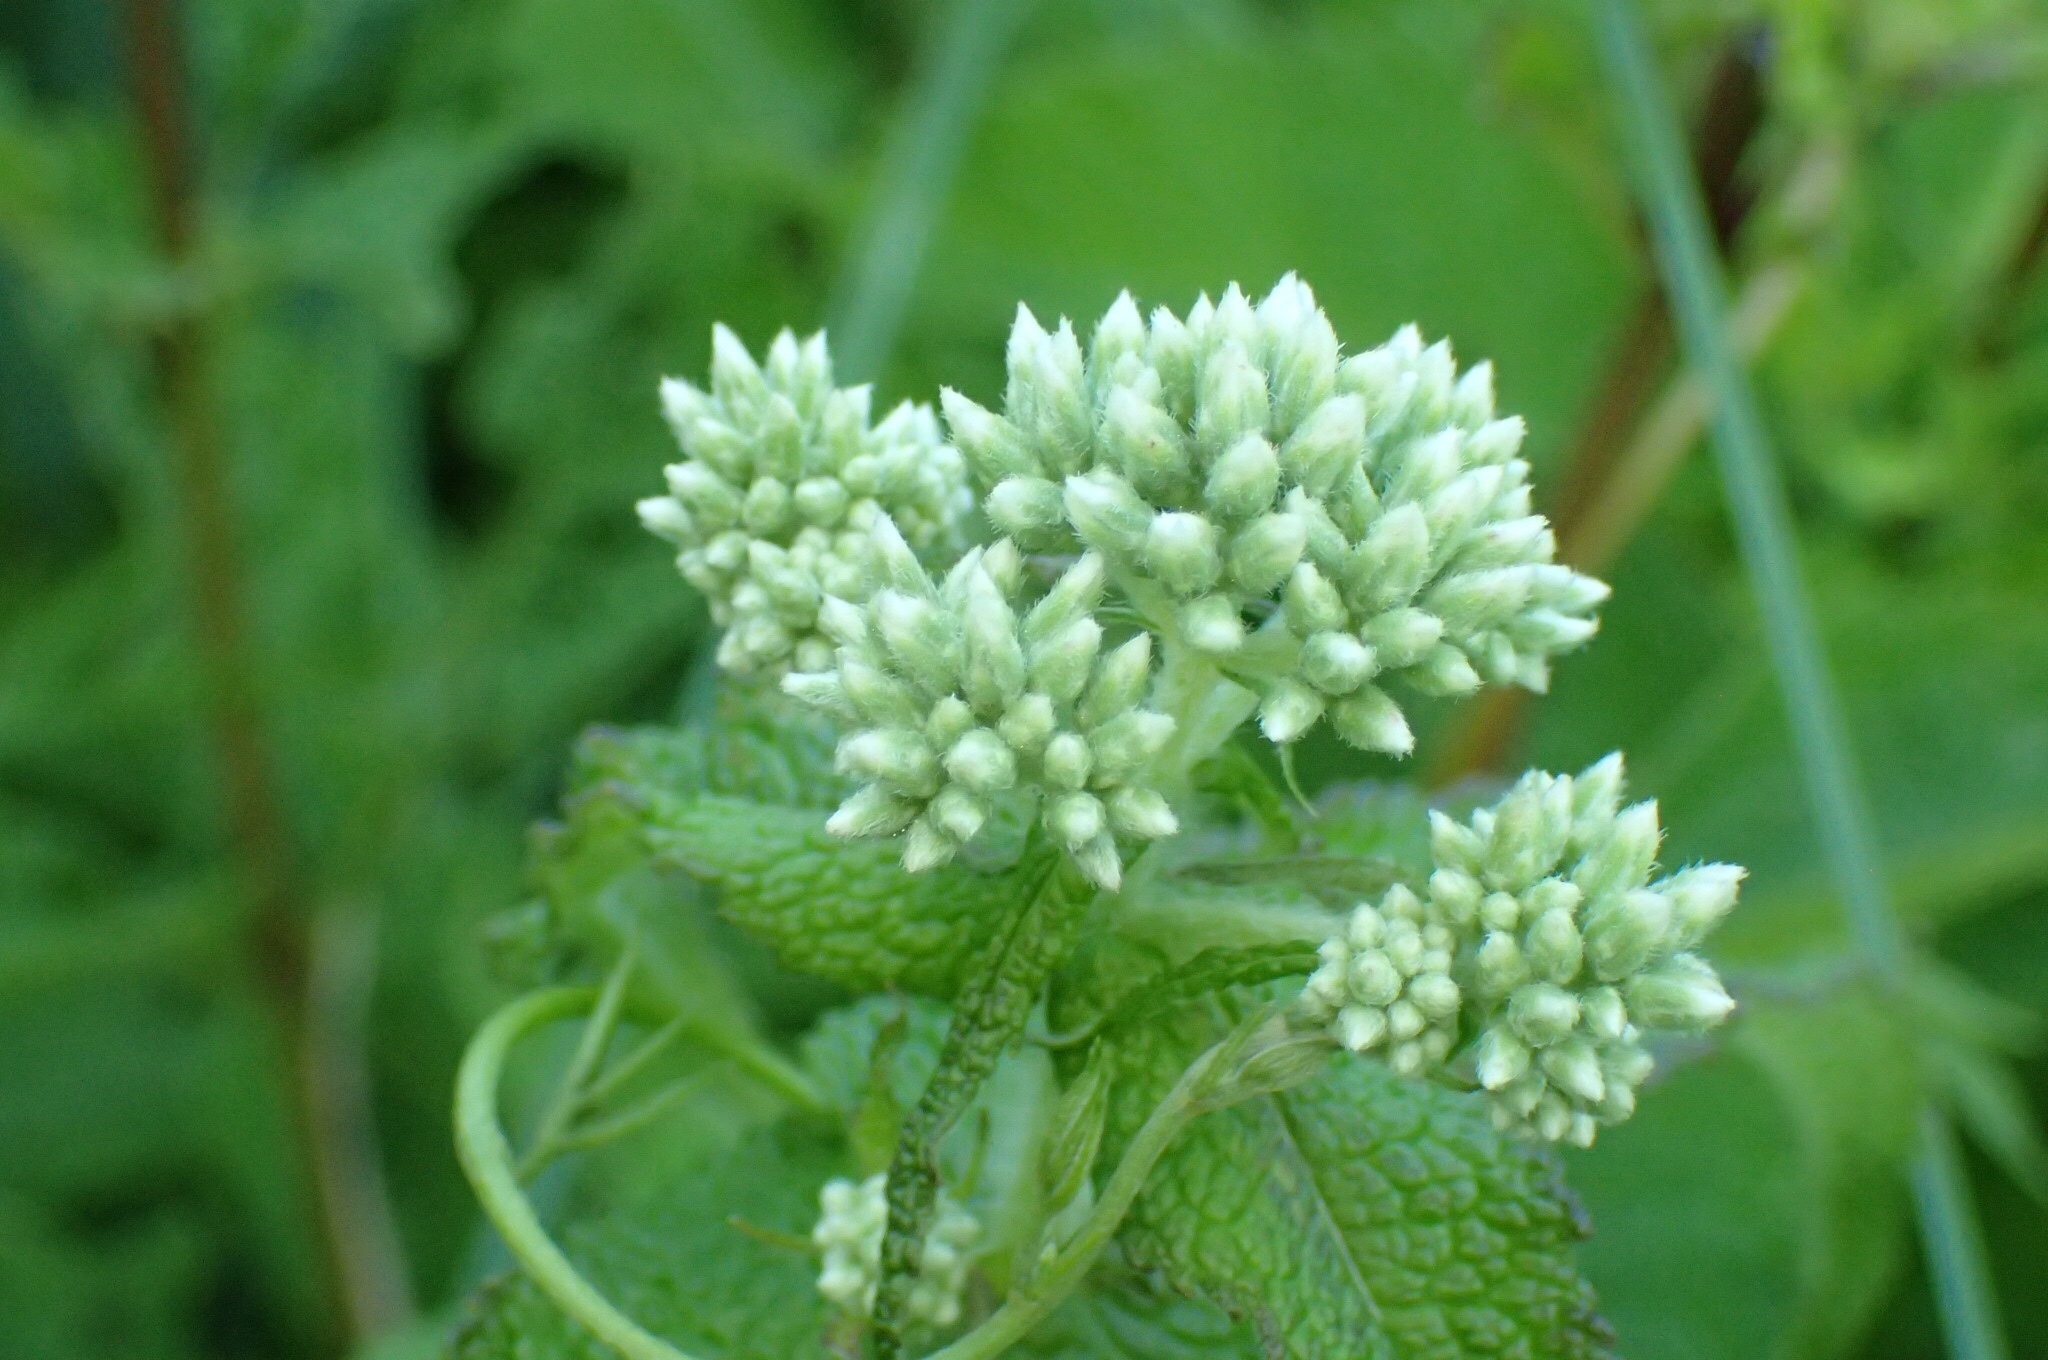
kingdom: Plantae
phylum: Tracheophyta
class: Magnoliopsida
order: Asterales
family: Asteraceae
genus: Eupatorium
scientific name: Eupatorium perfoliatum
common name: Boneset
